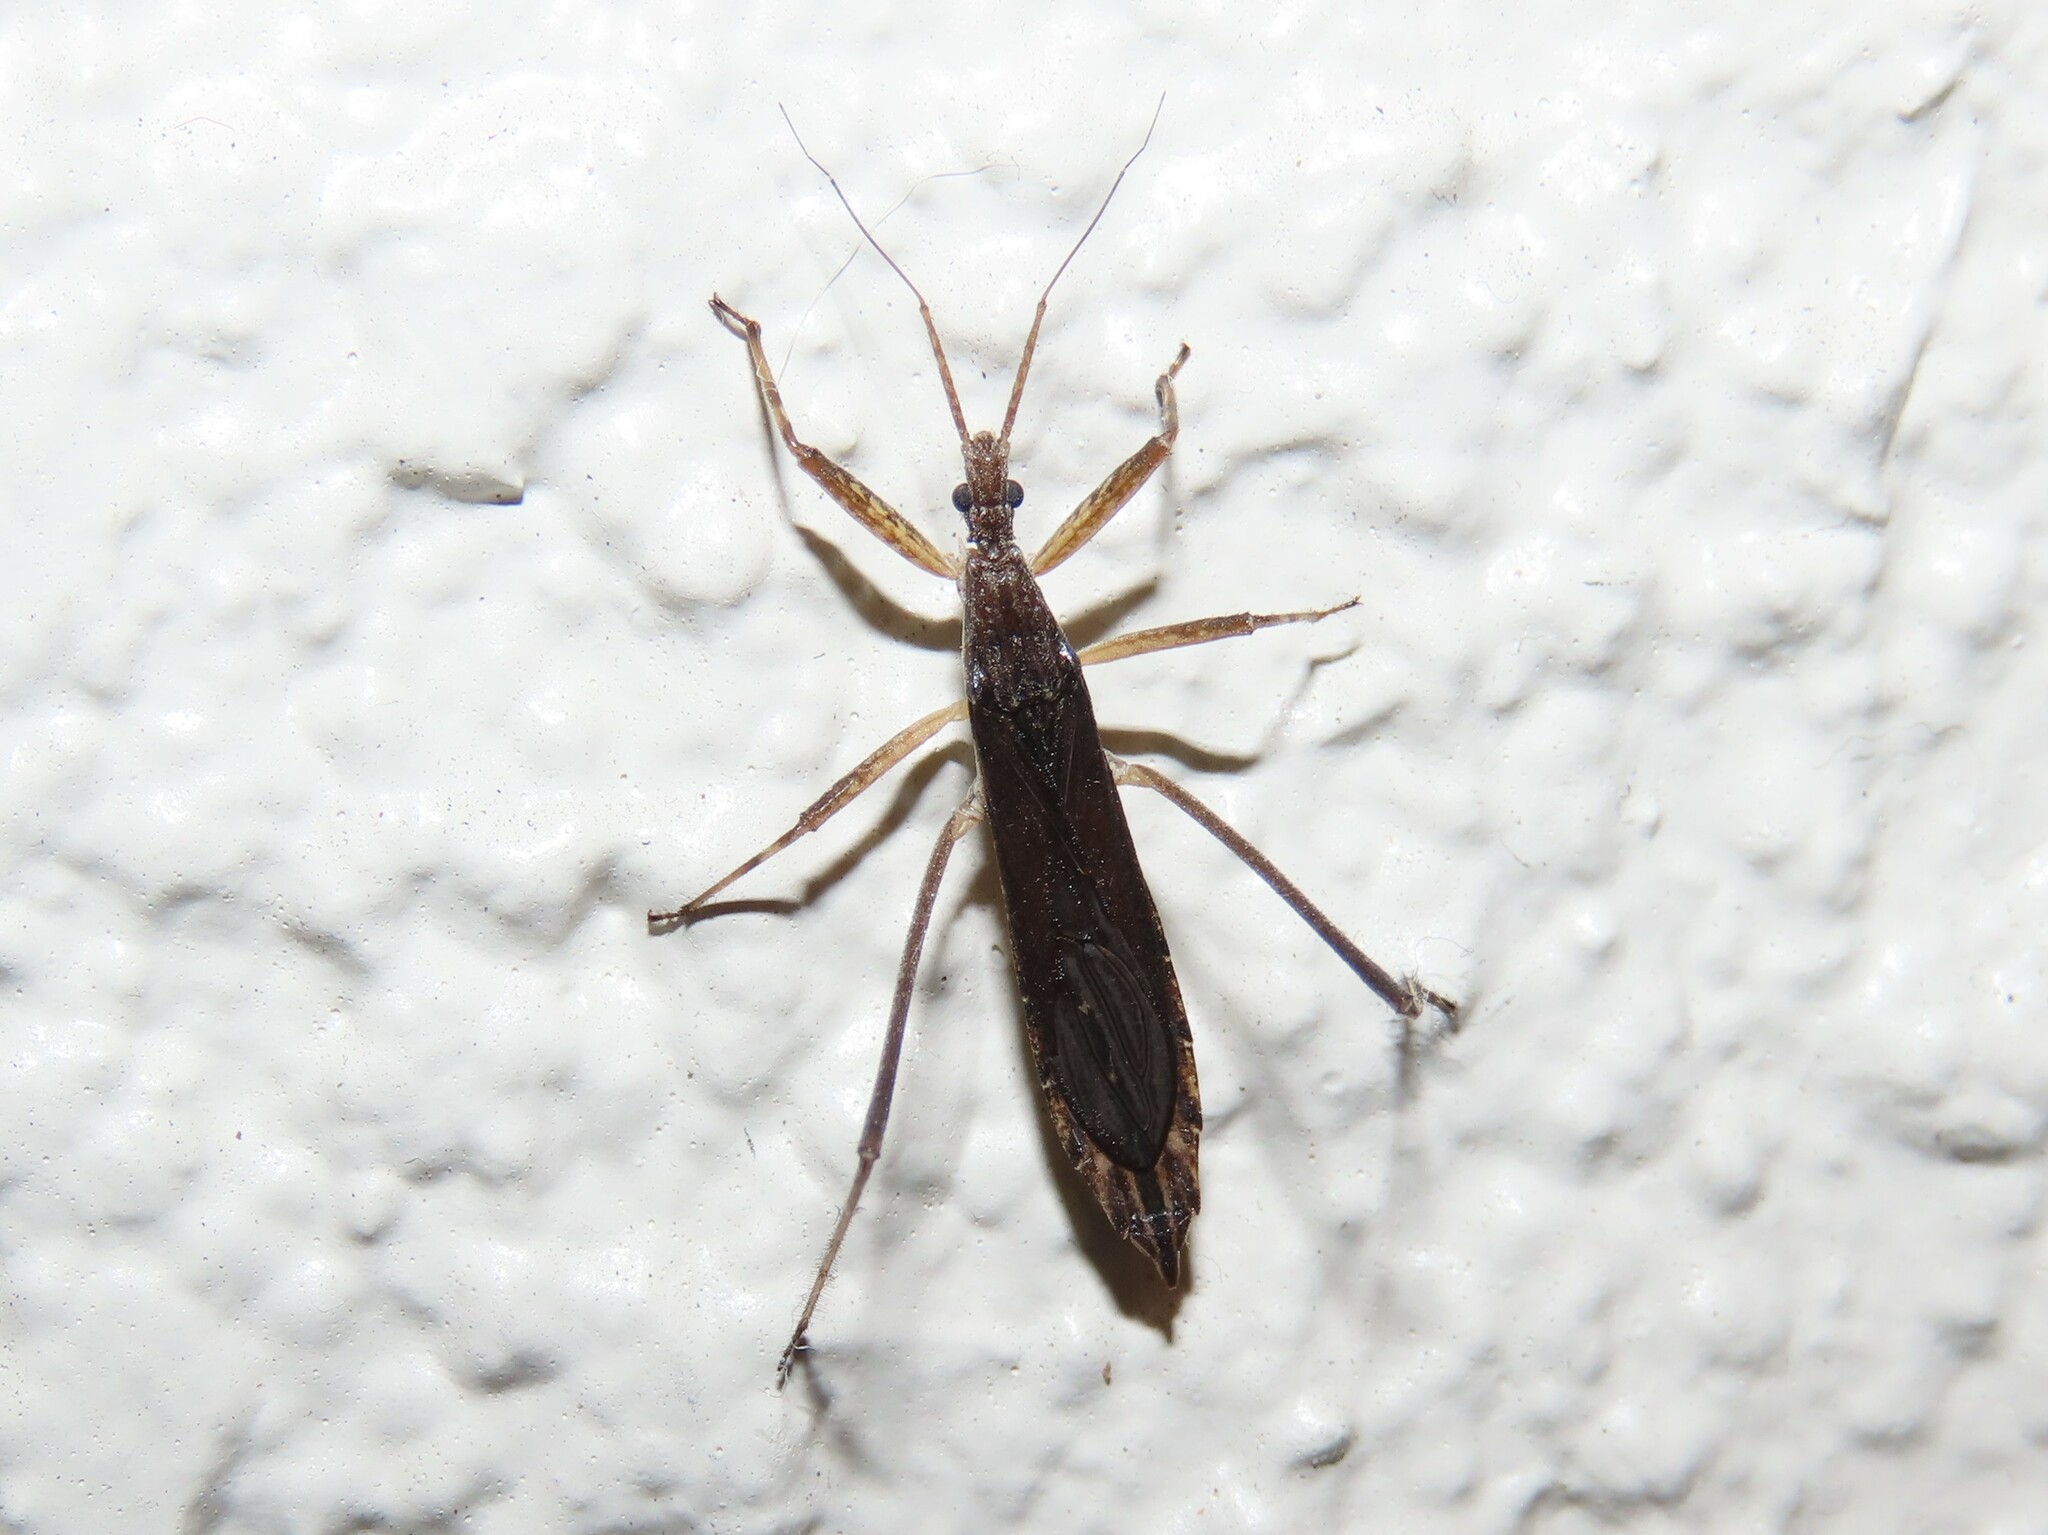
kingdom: Animalia
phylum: Arthropoda
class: Insecta
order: Hemiptera
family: Reduviidae
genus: Pygolampis
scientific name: Pygolampis pectoralis
